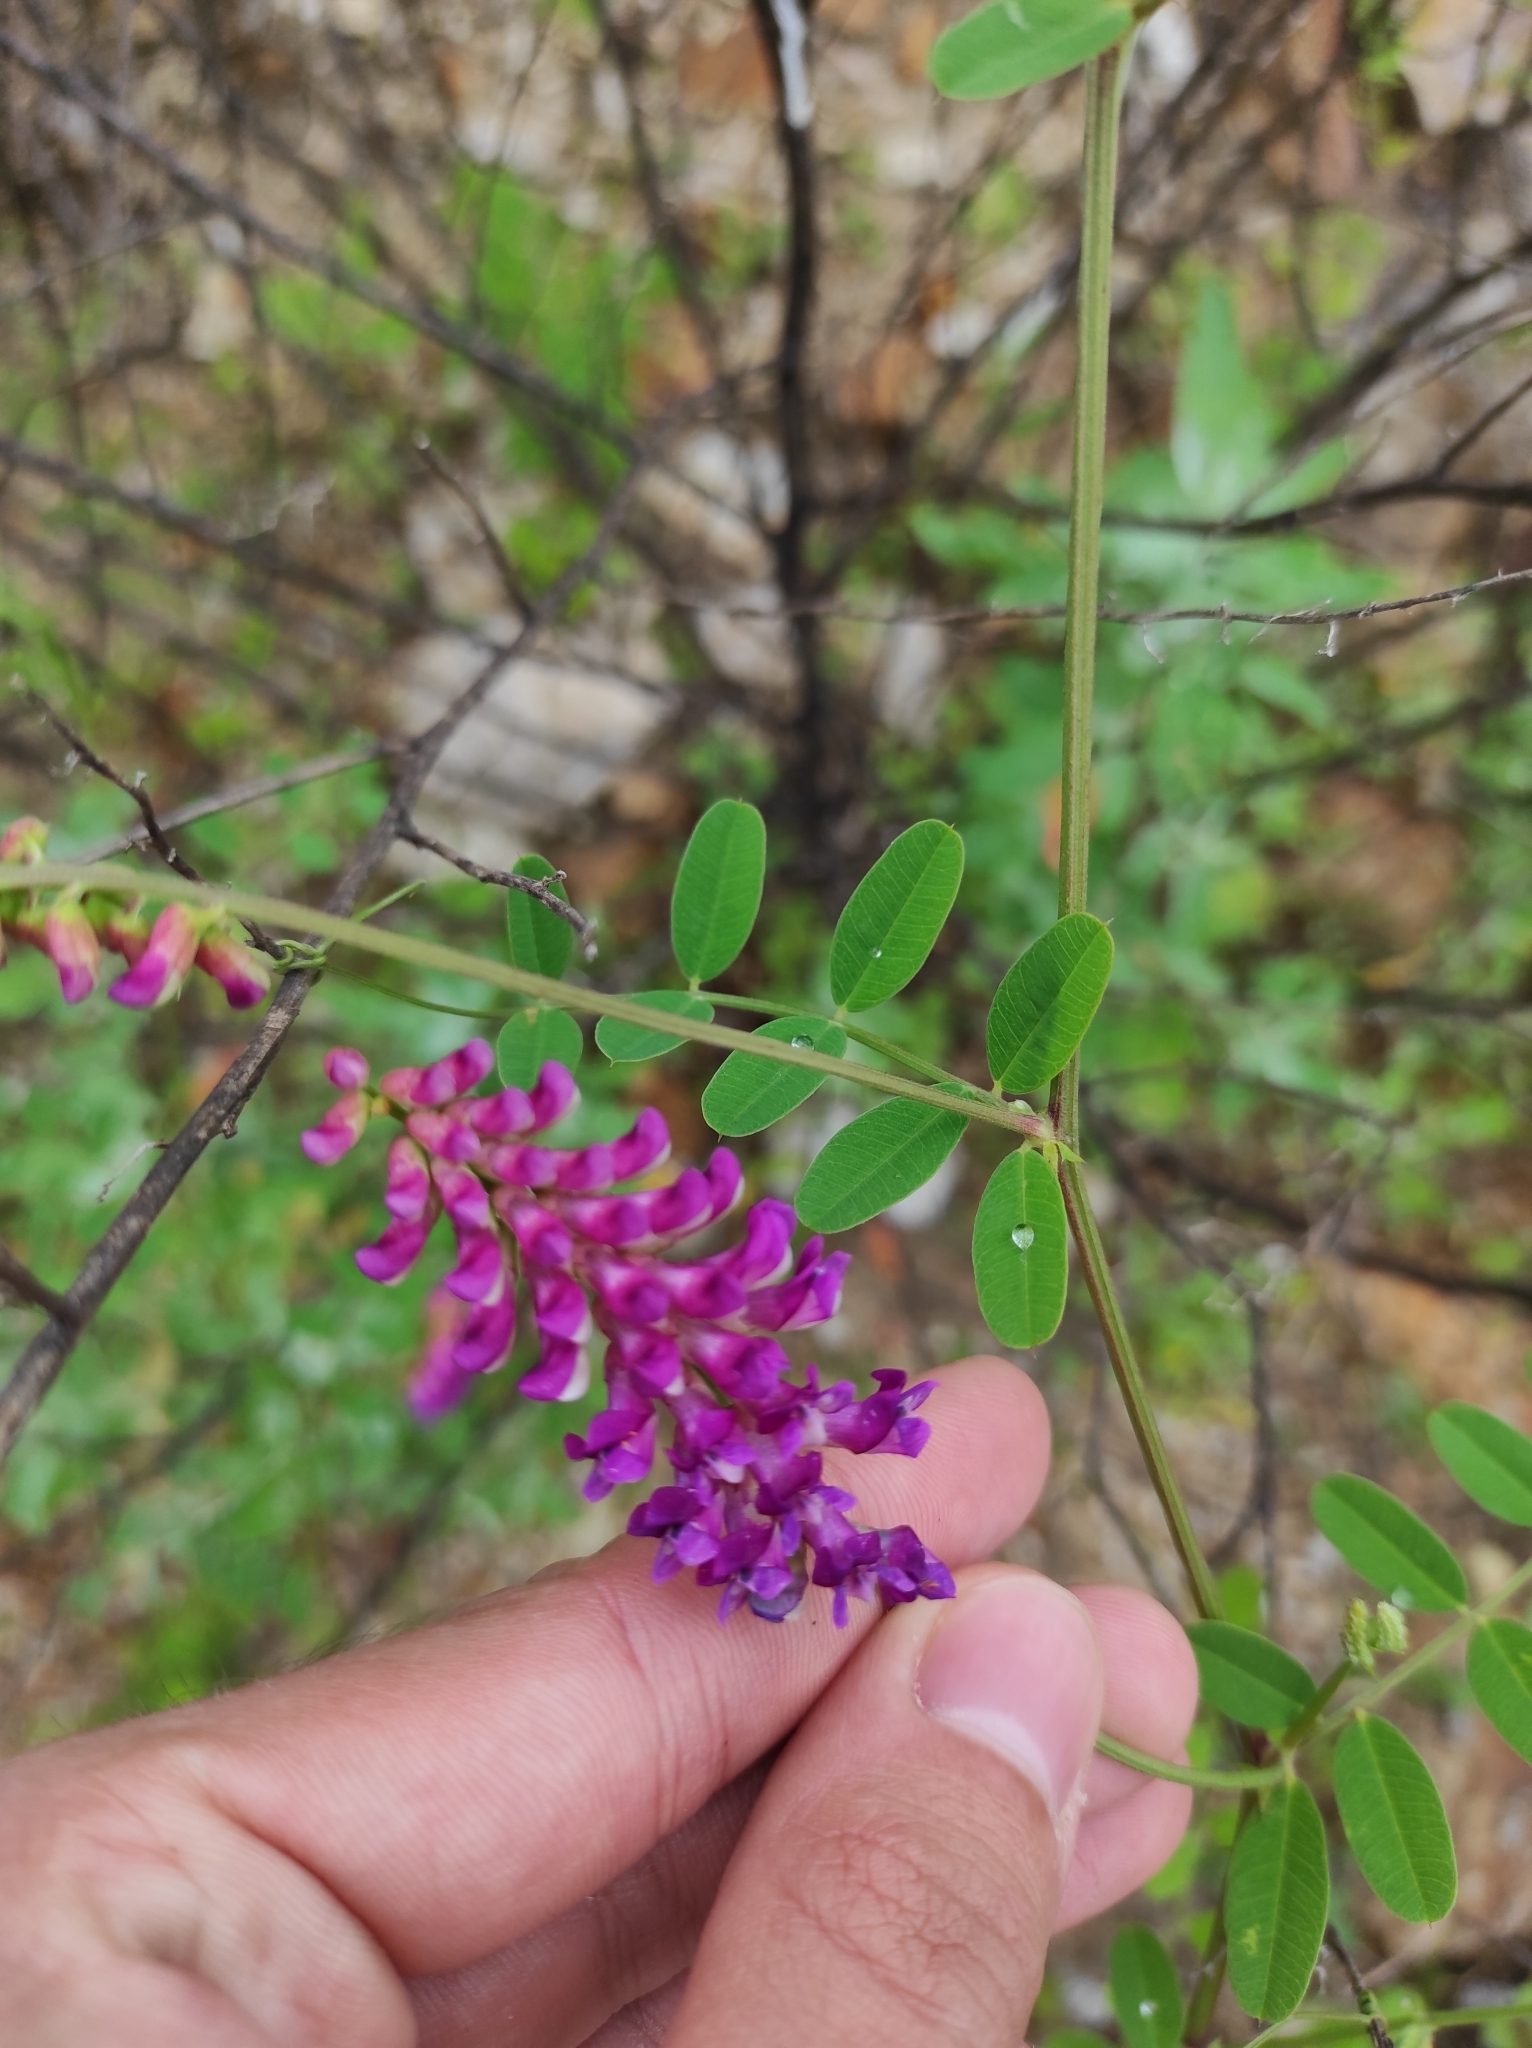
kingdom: Plantae
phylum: Tracheophyta
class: Magnoliopsida
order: Fabales
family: Fabaceae
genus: Vicia
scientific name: Vicia amurensis
